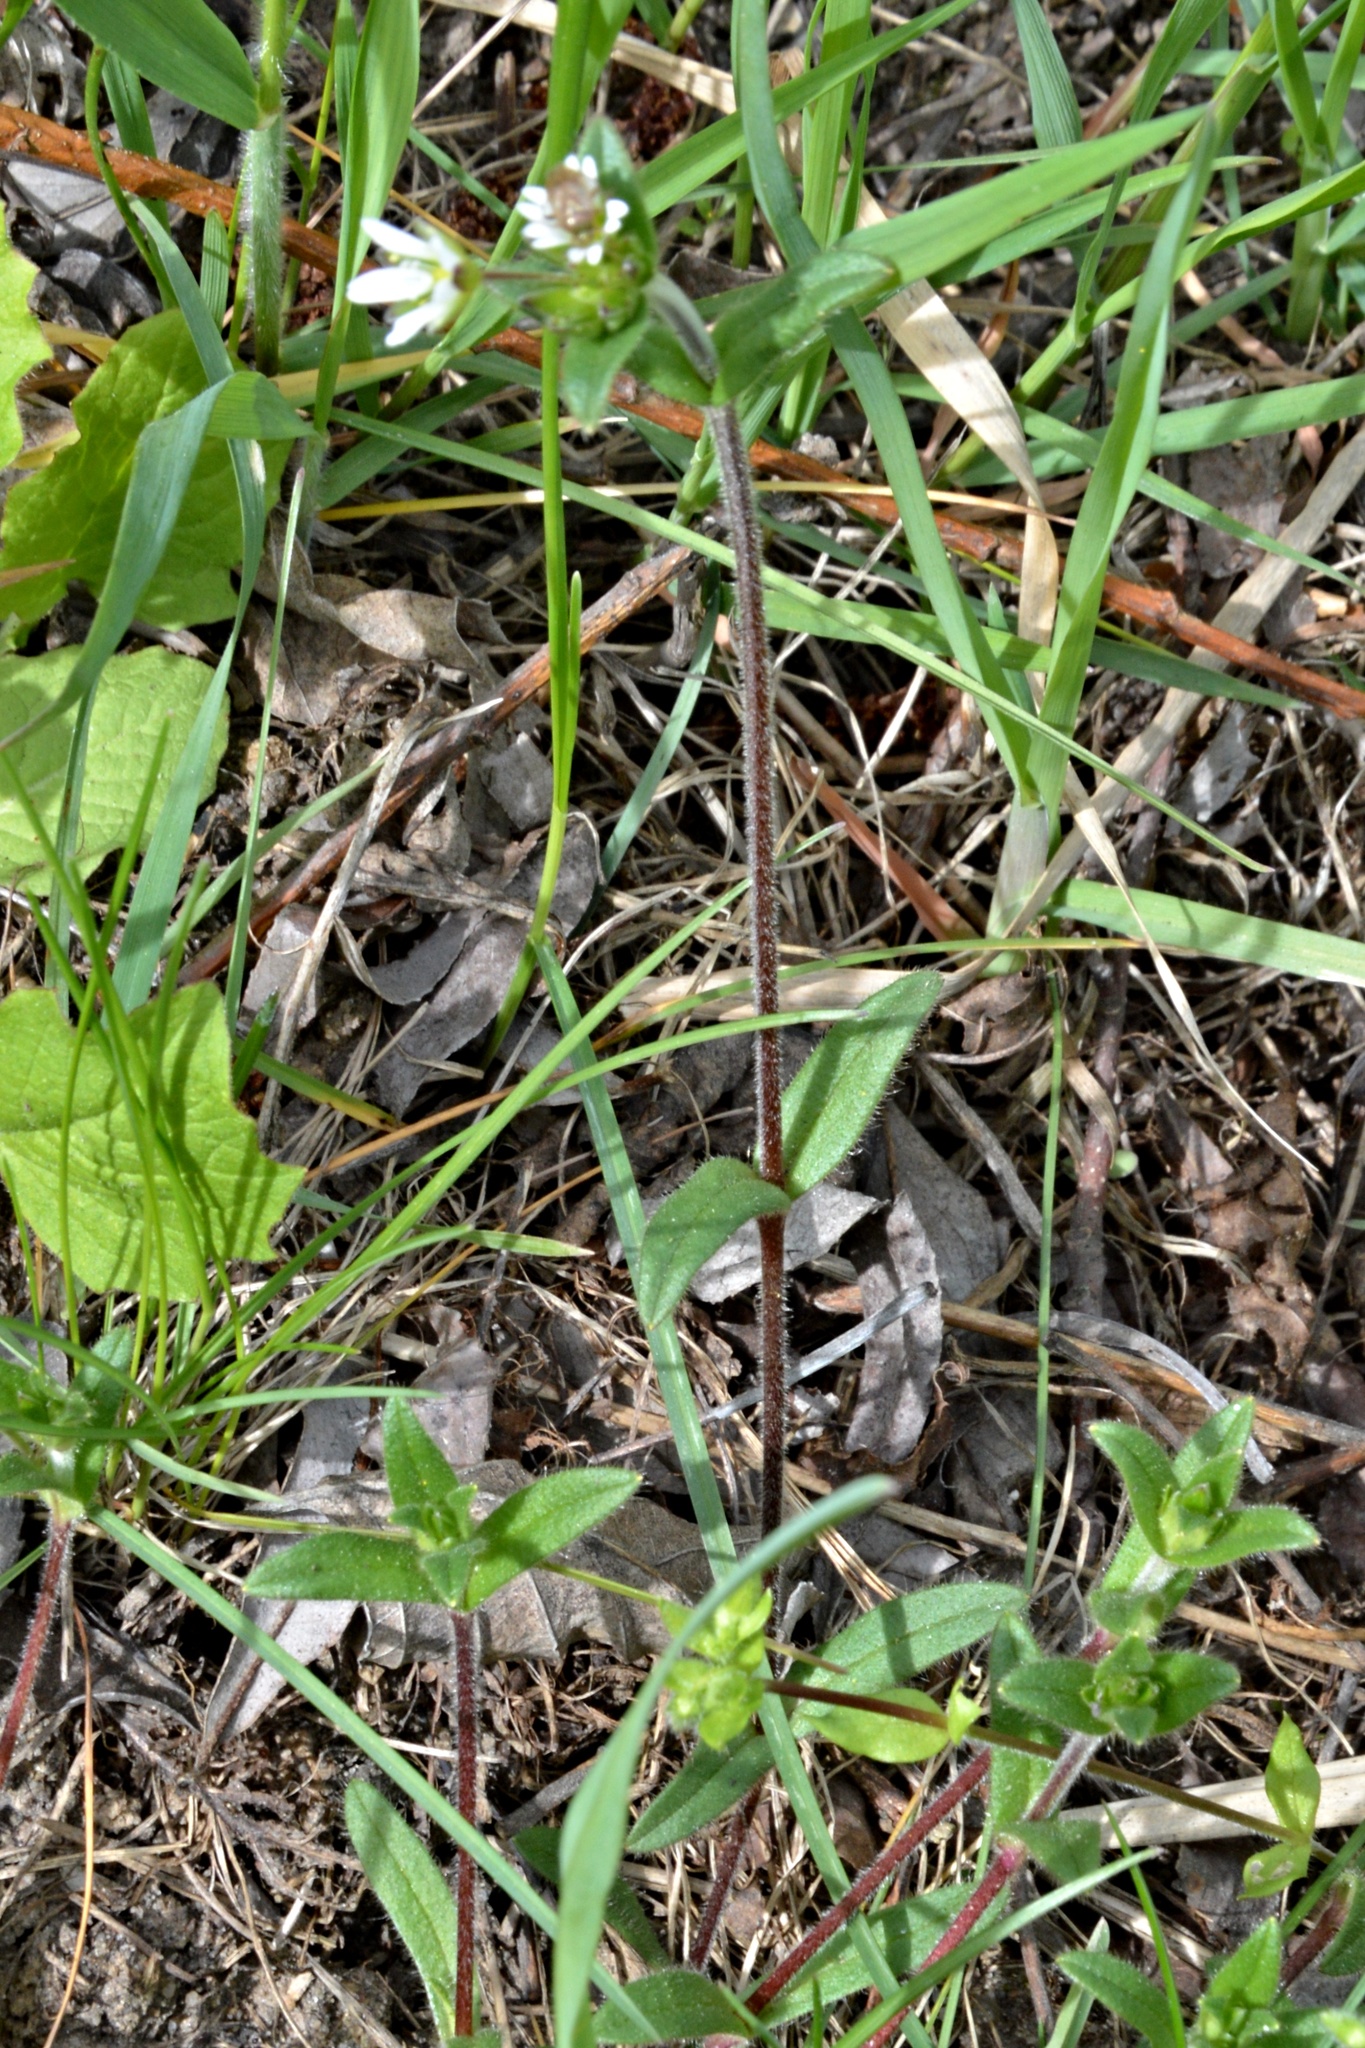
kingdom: Plantae
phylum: Tracheophyta
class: Magnoliopsida
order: Caryophyllales
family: Caryophyllaceae
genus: Cerastium
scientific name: Cerastium holosteoides
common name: Big chickweed
